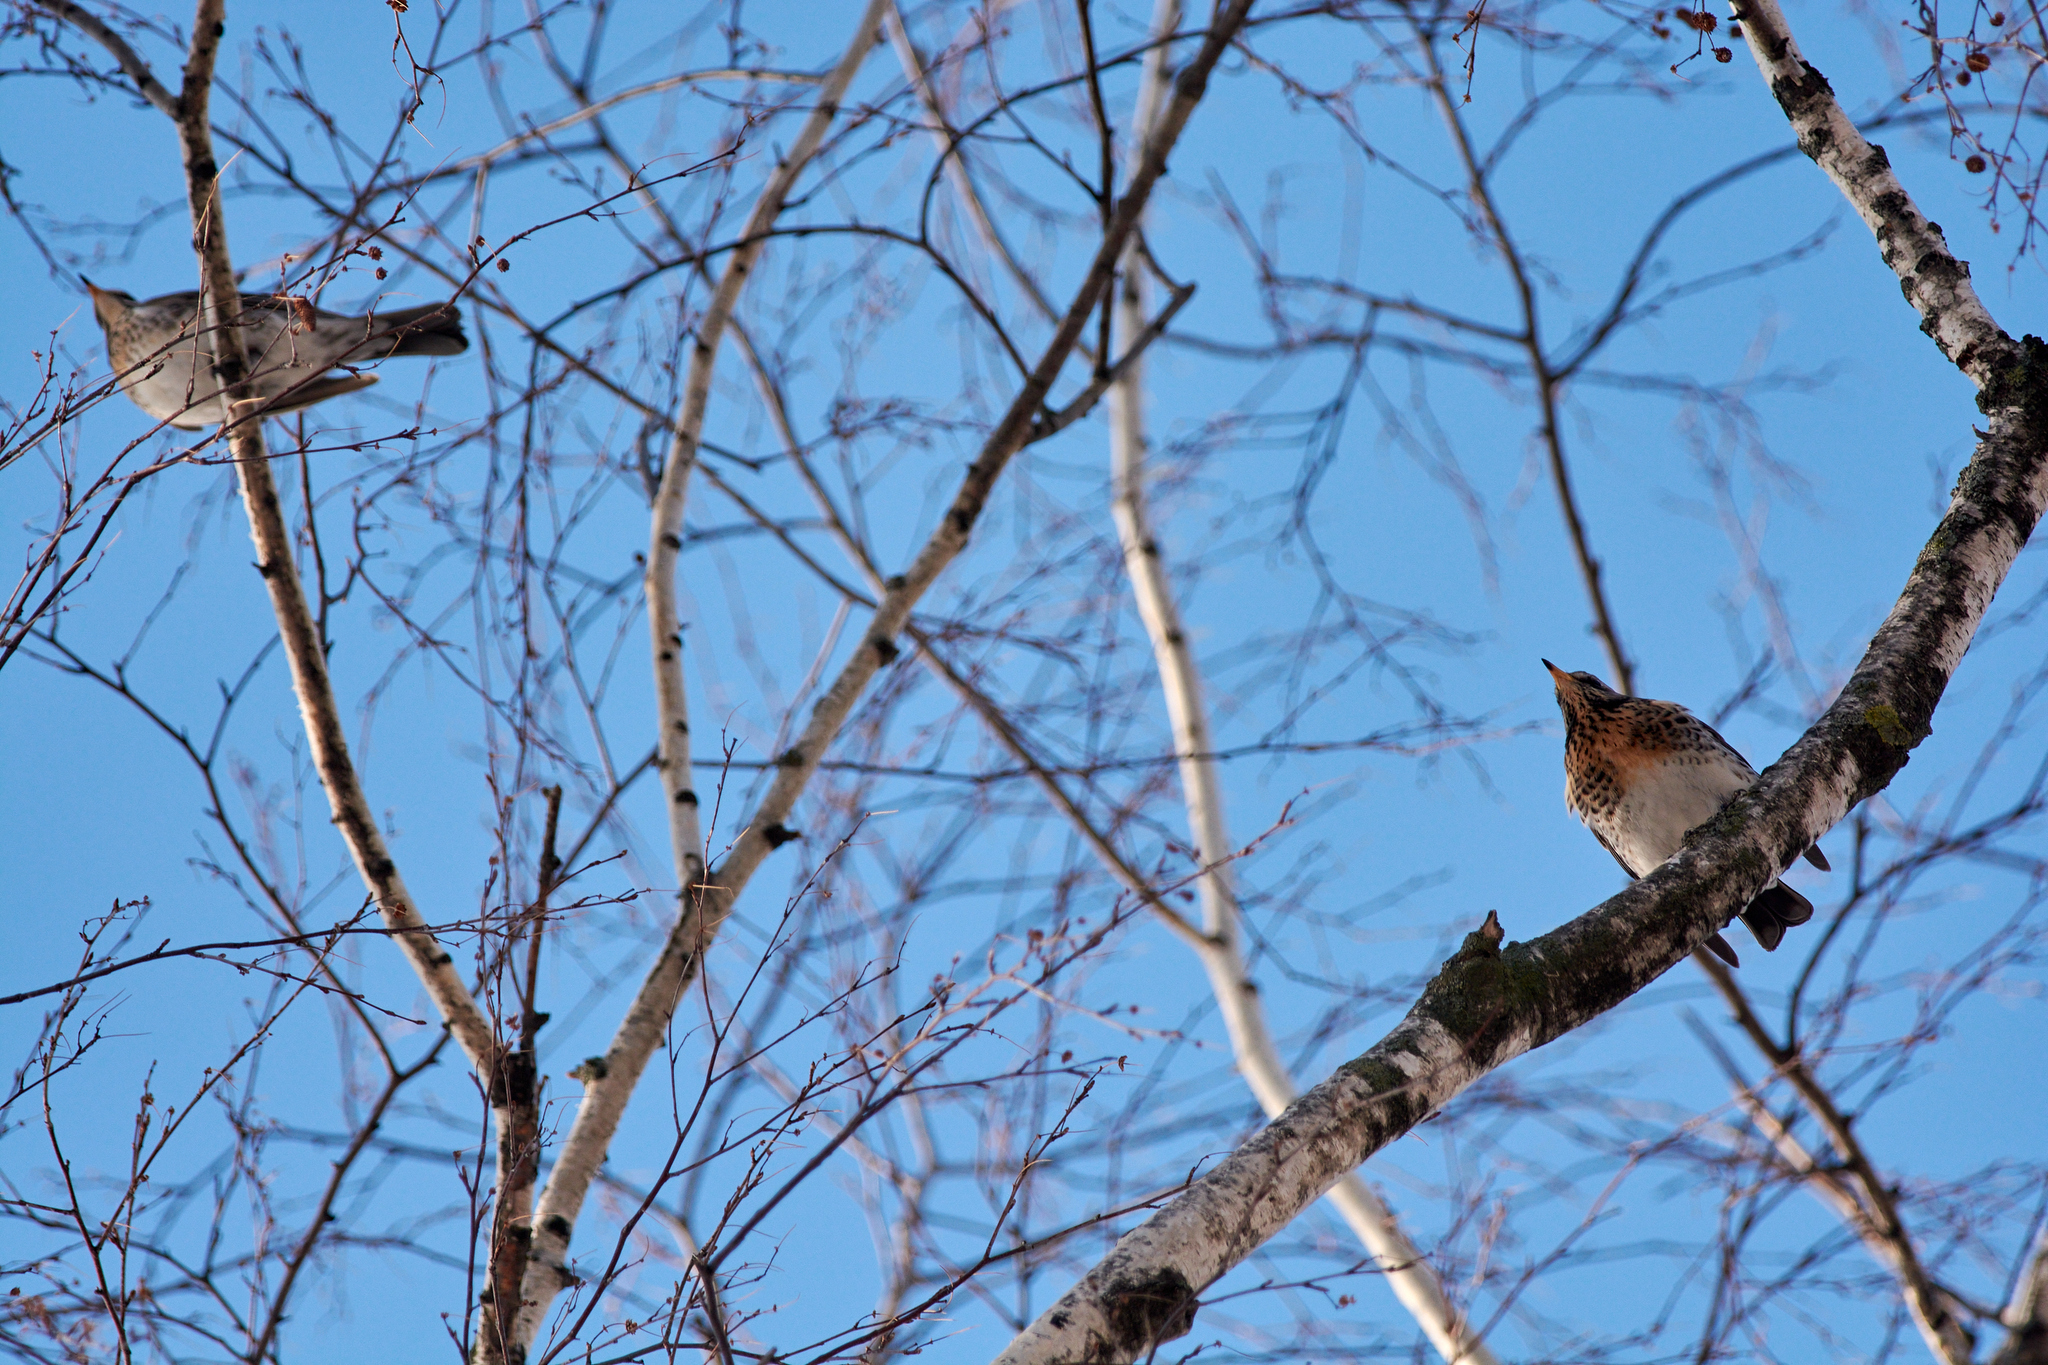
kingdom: Animalia
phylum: Chordata
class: Aves
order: Passeriformes
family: Turdidae
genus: Turdus
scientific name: Turdus pilaris
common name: Fieldfare
